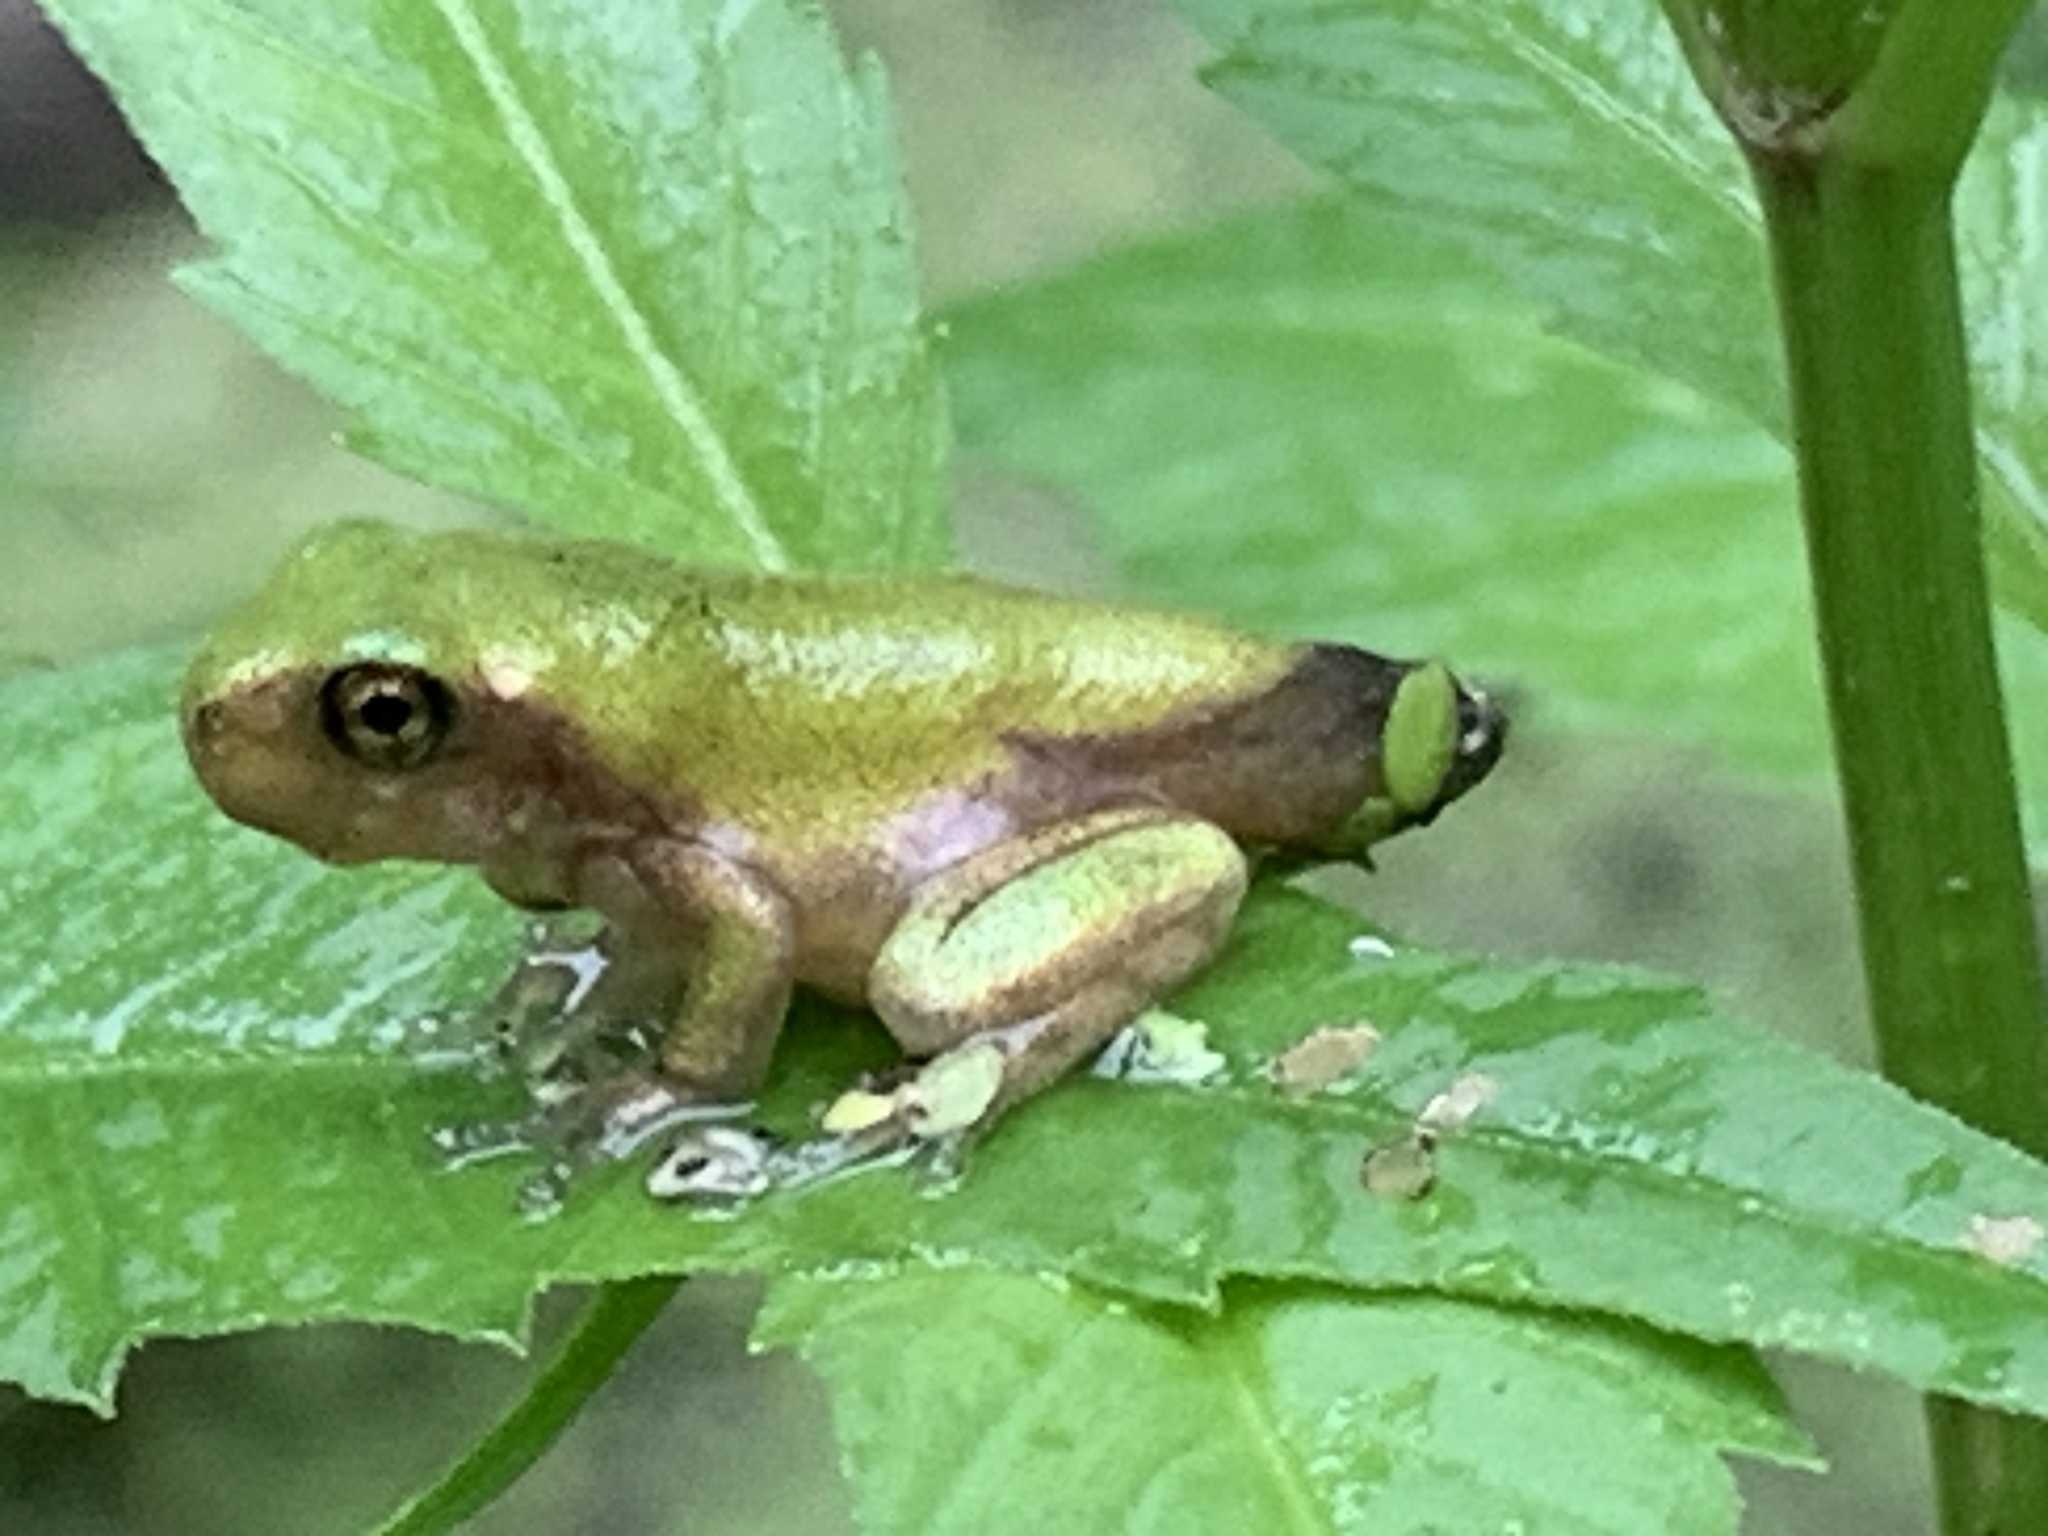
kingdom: Animalia
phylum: Chordata
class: Amphibia
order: Anura
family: Hylidae
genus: Dryophytes
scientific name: Dryophytes versicolor
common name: Gray treefrog
